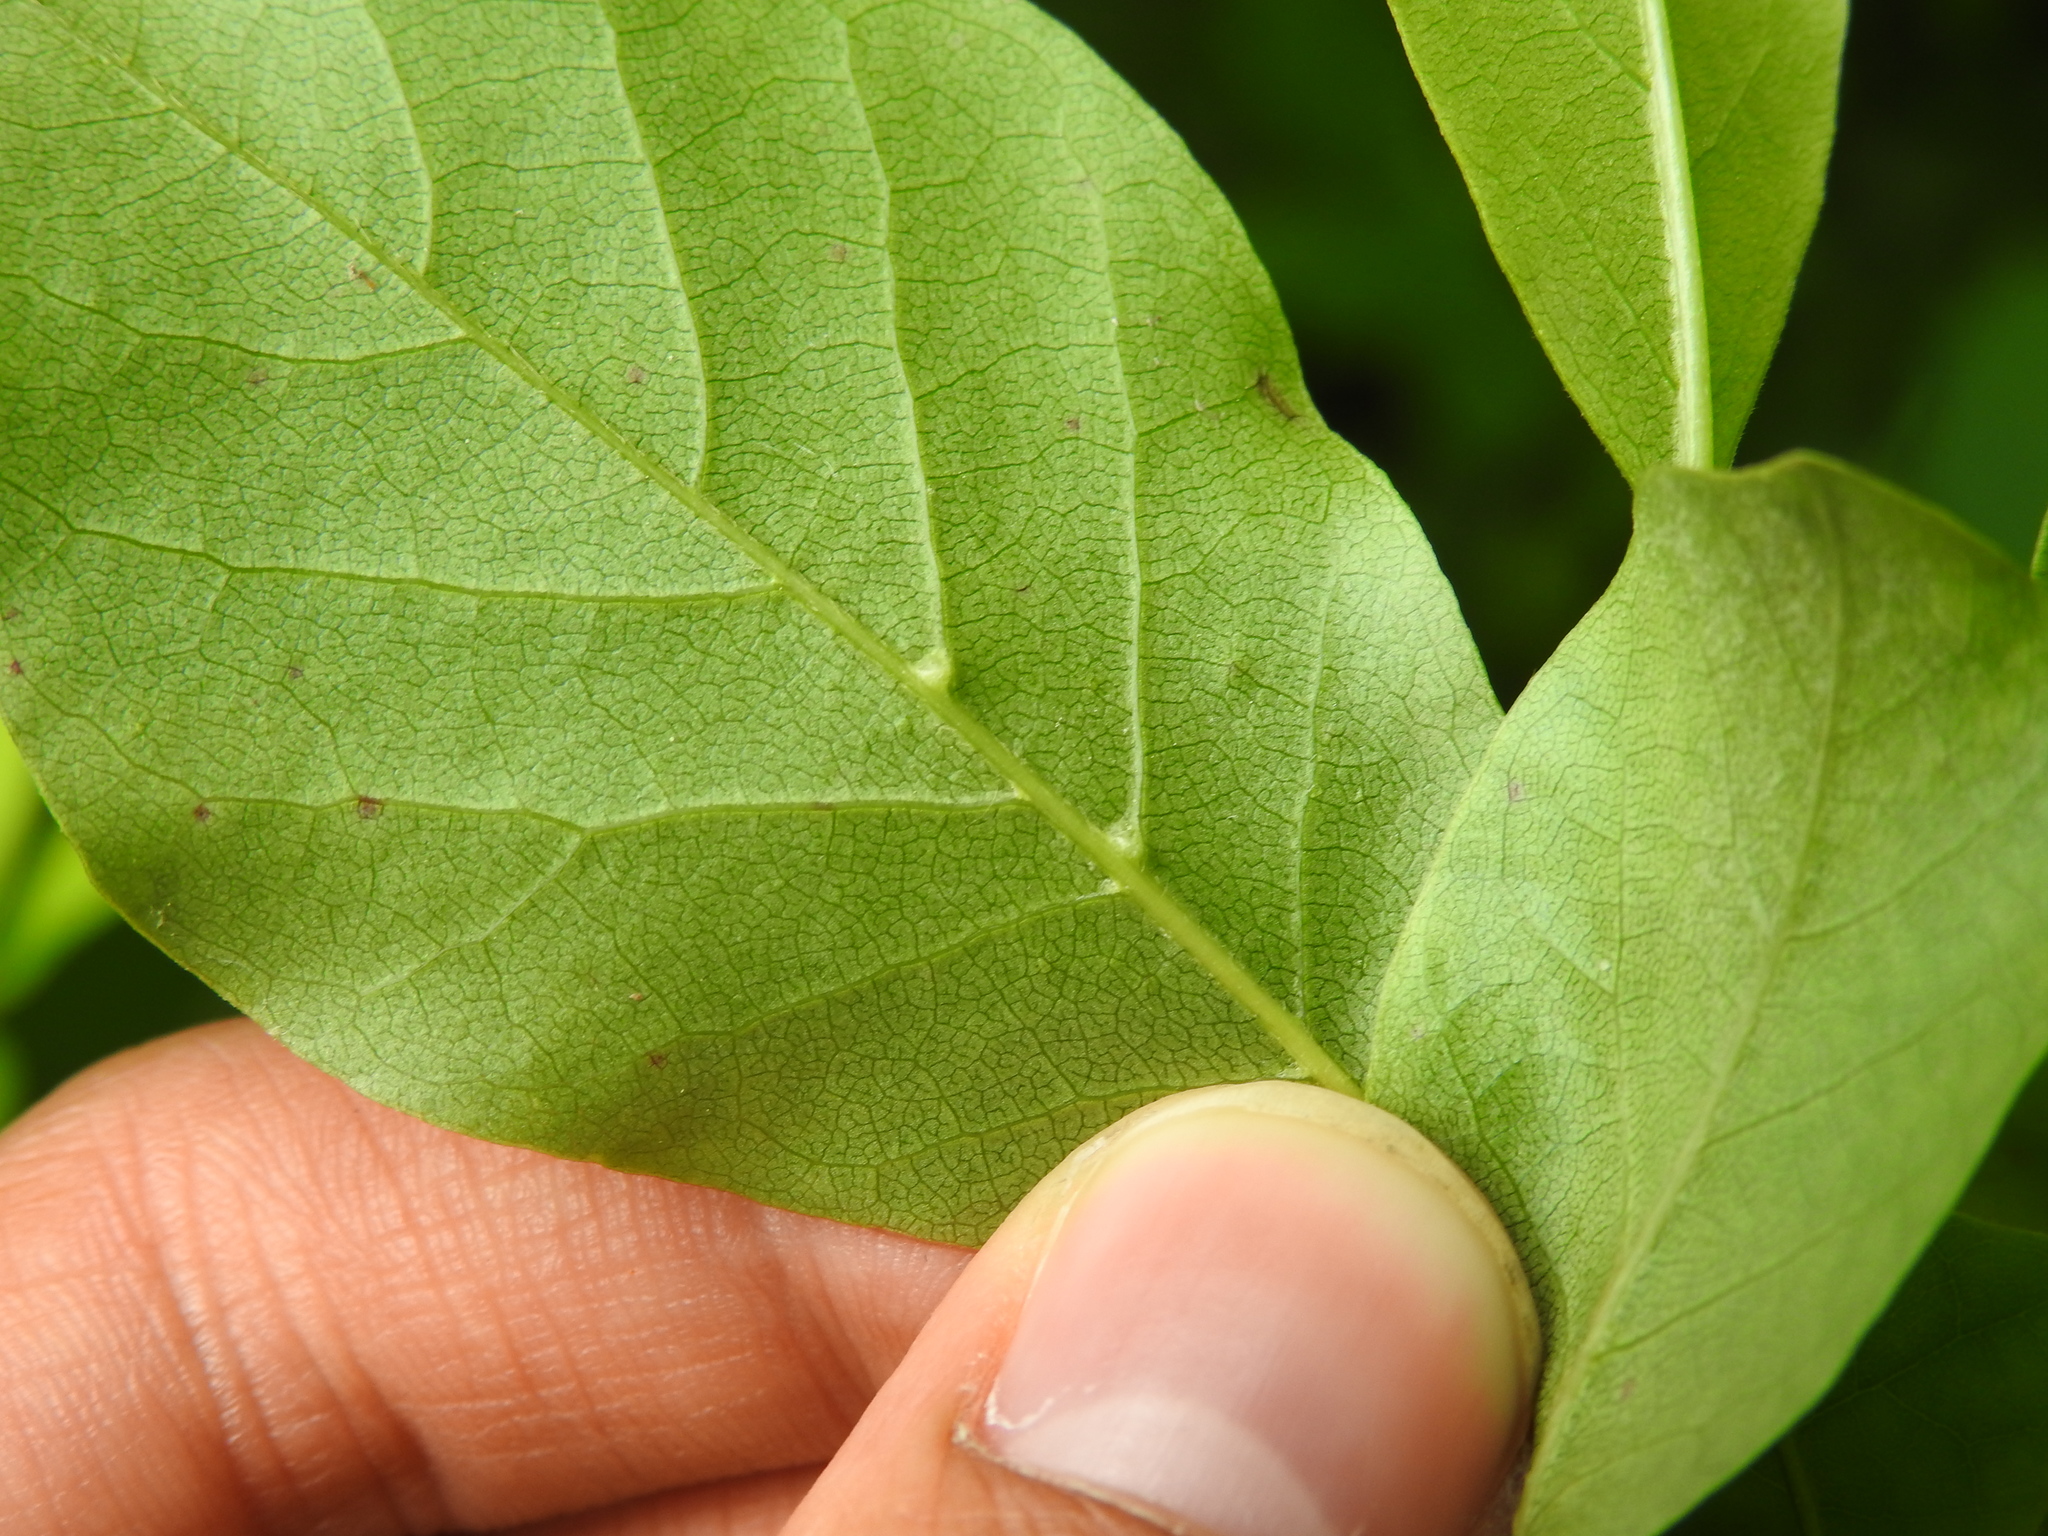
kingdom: Animalia
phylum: Arthropoda
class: Arachnida
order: Trombidiformes
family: Eriophyidae
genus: Cenalox
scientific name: Cenalox
